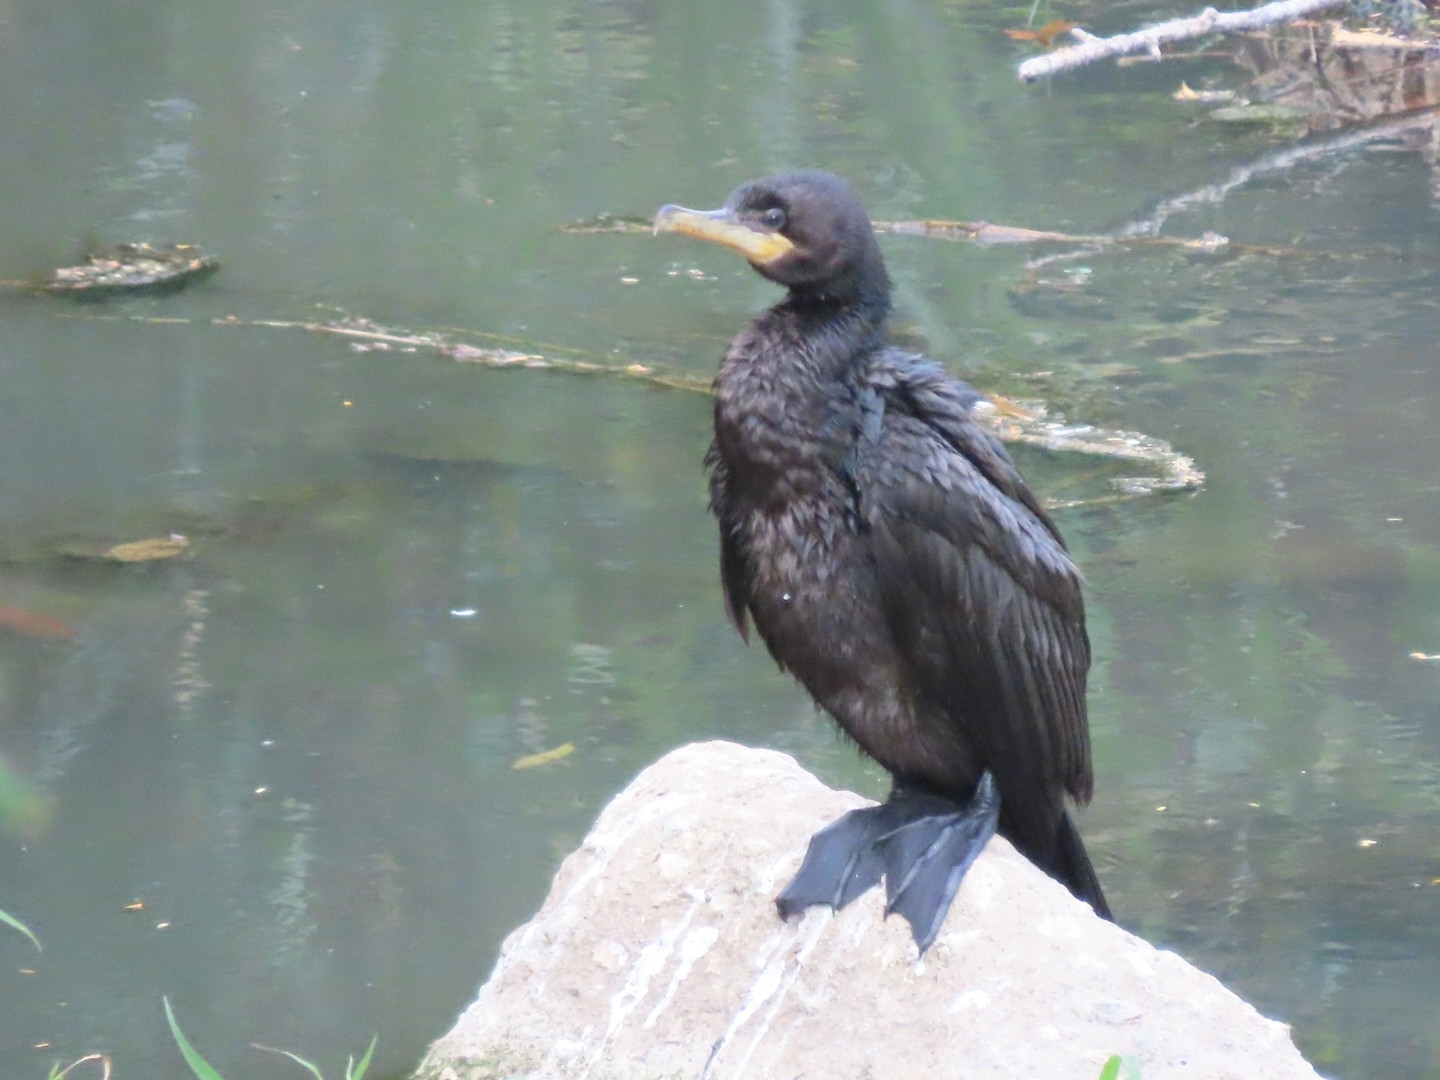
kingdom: Animalia
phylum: Chordata
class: Aves
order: Suliformes
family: Phalacrocoracidae
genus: Phalacrocorax
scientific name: Phalacrocorax brasilianus
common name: Neotropic cormorant
